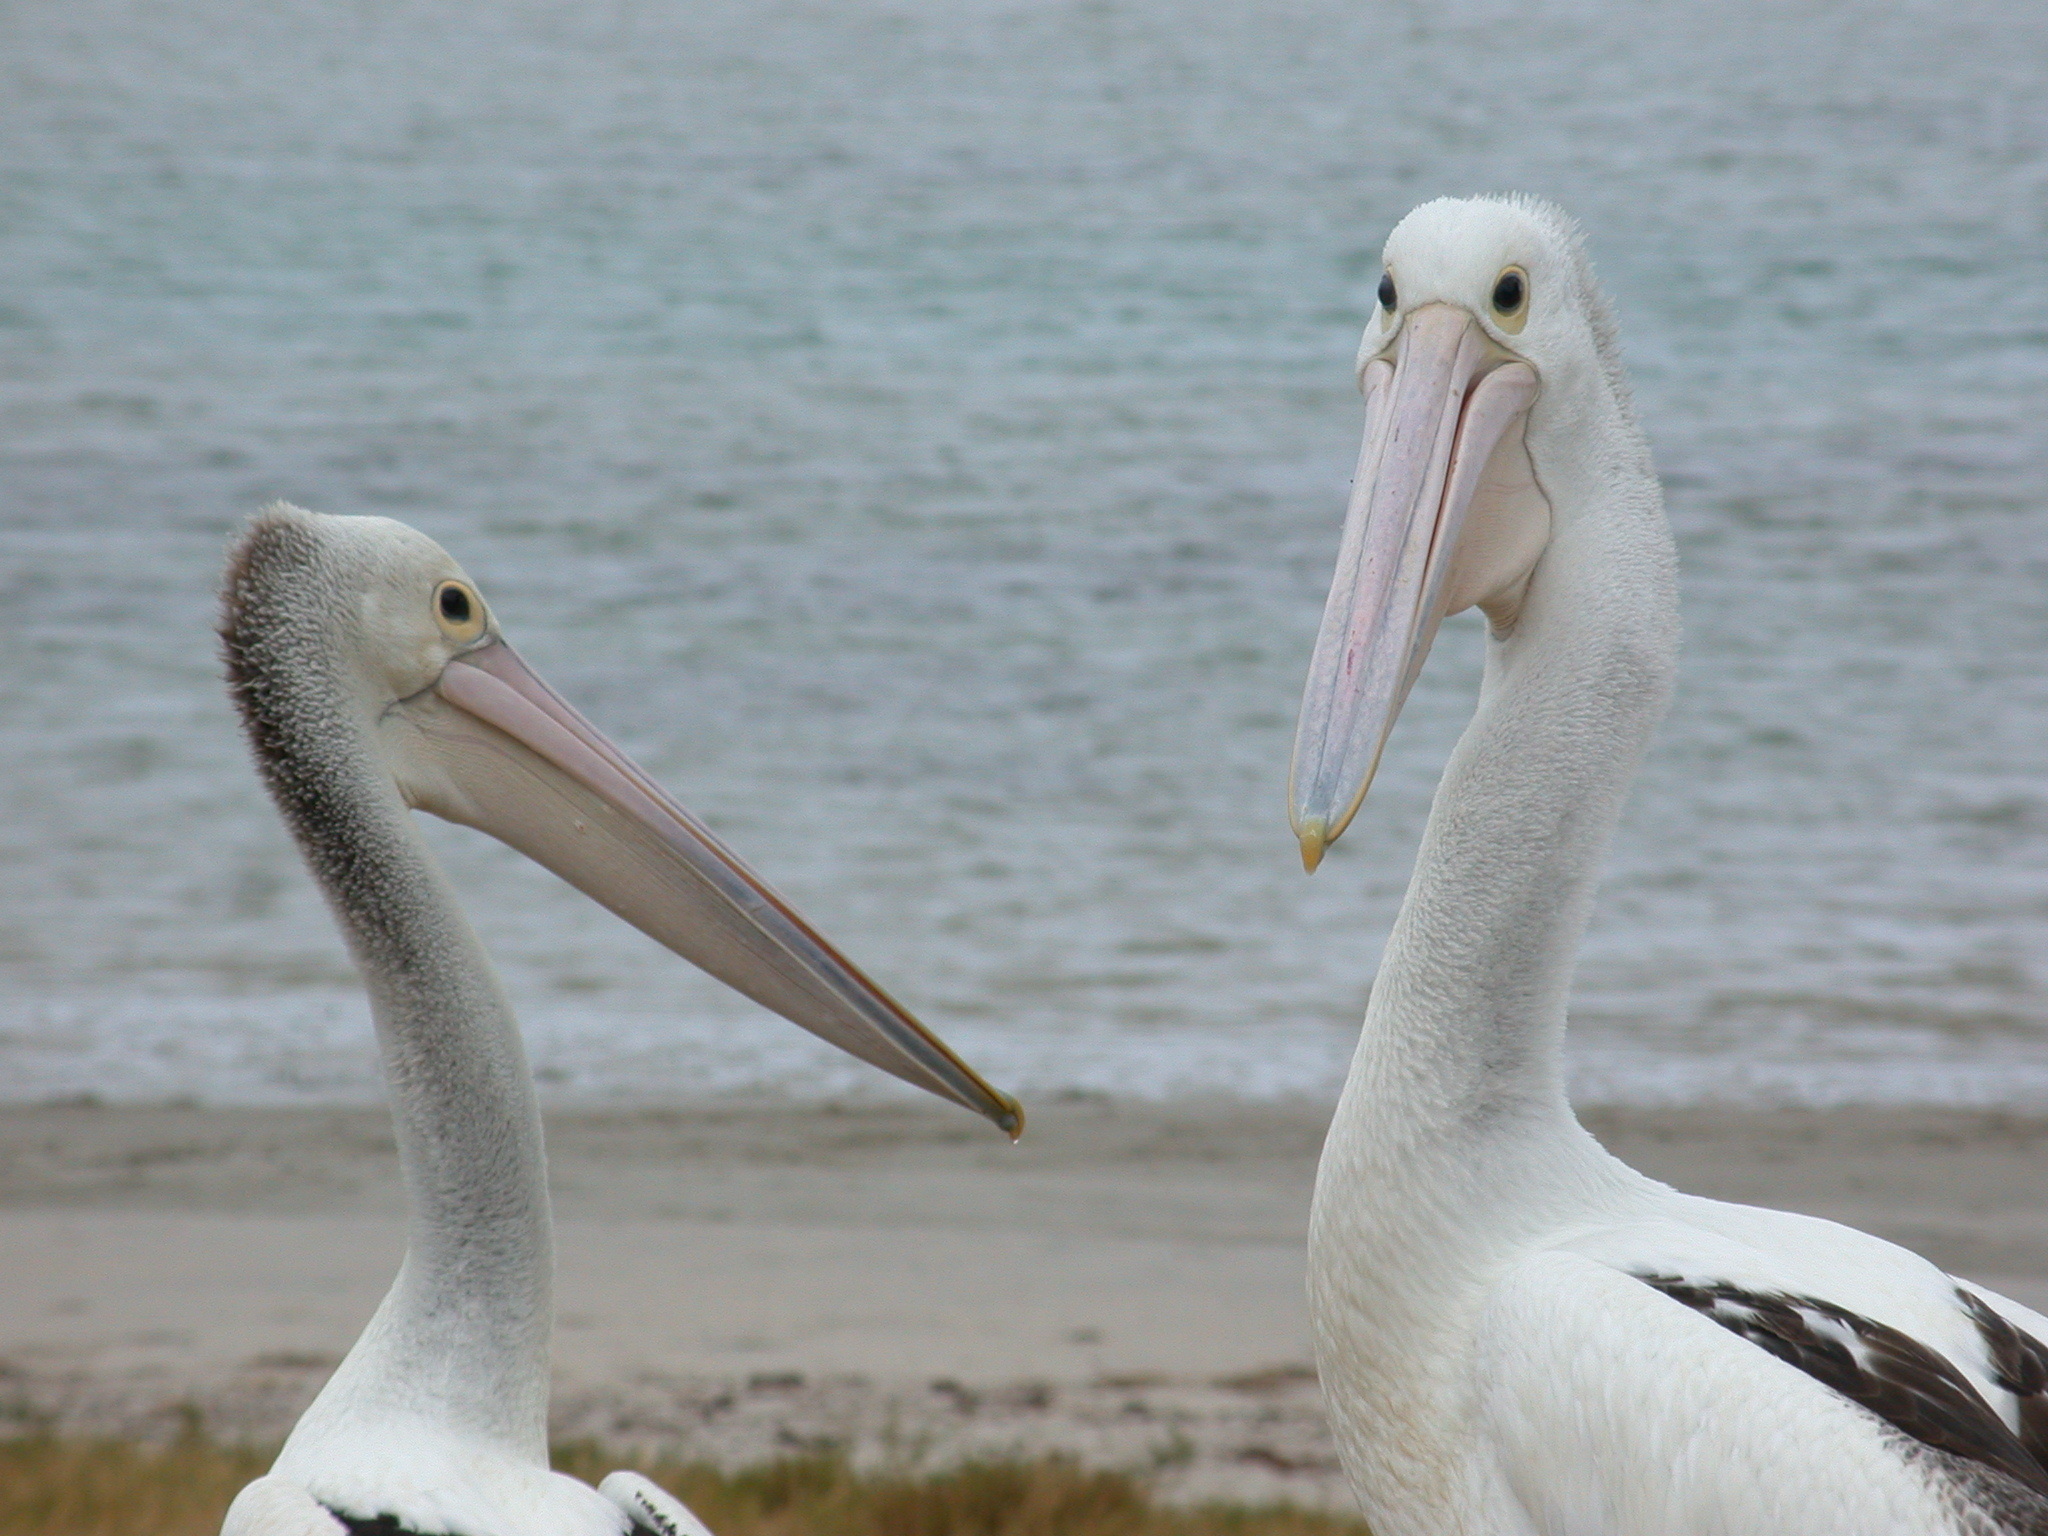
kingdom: Animalia
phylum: Chordata
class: Aves
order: Pelecaniformes
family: Pelecanidae
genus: Pelecanus
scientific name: Pelecanus conspicillatus
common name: Australian pelican
